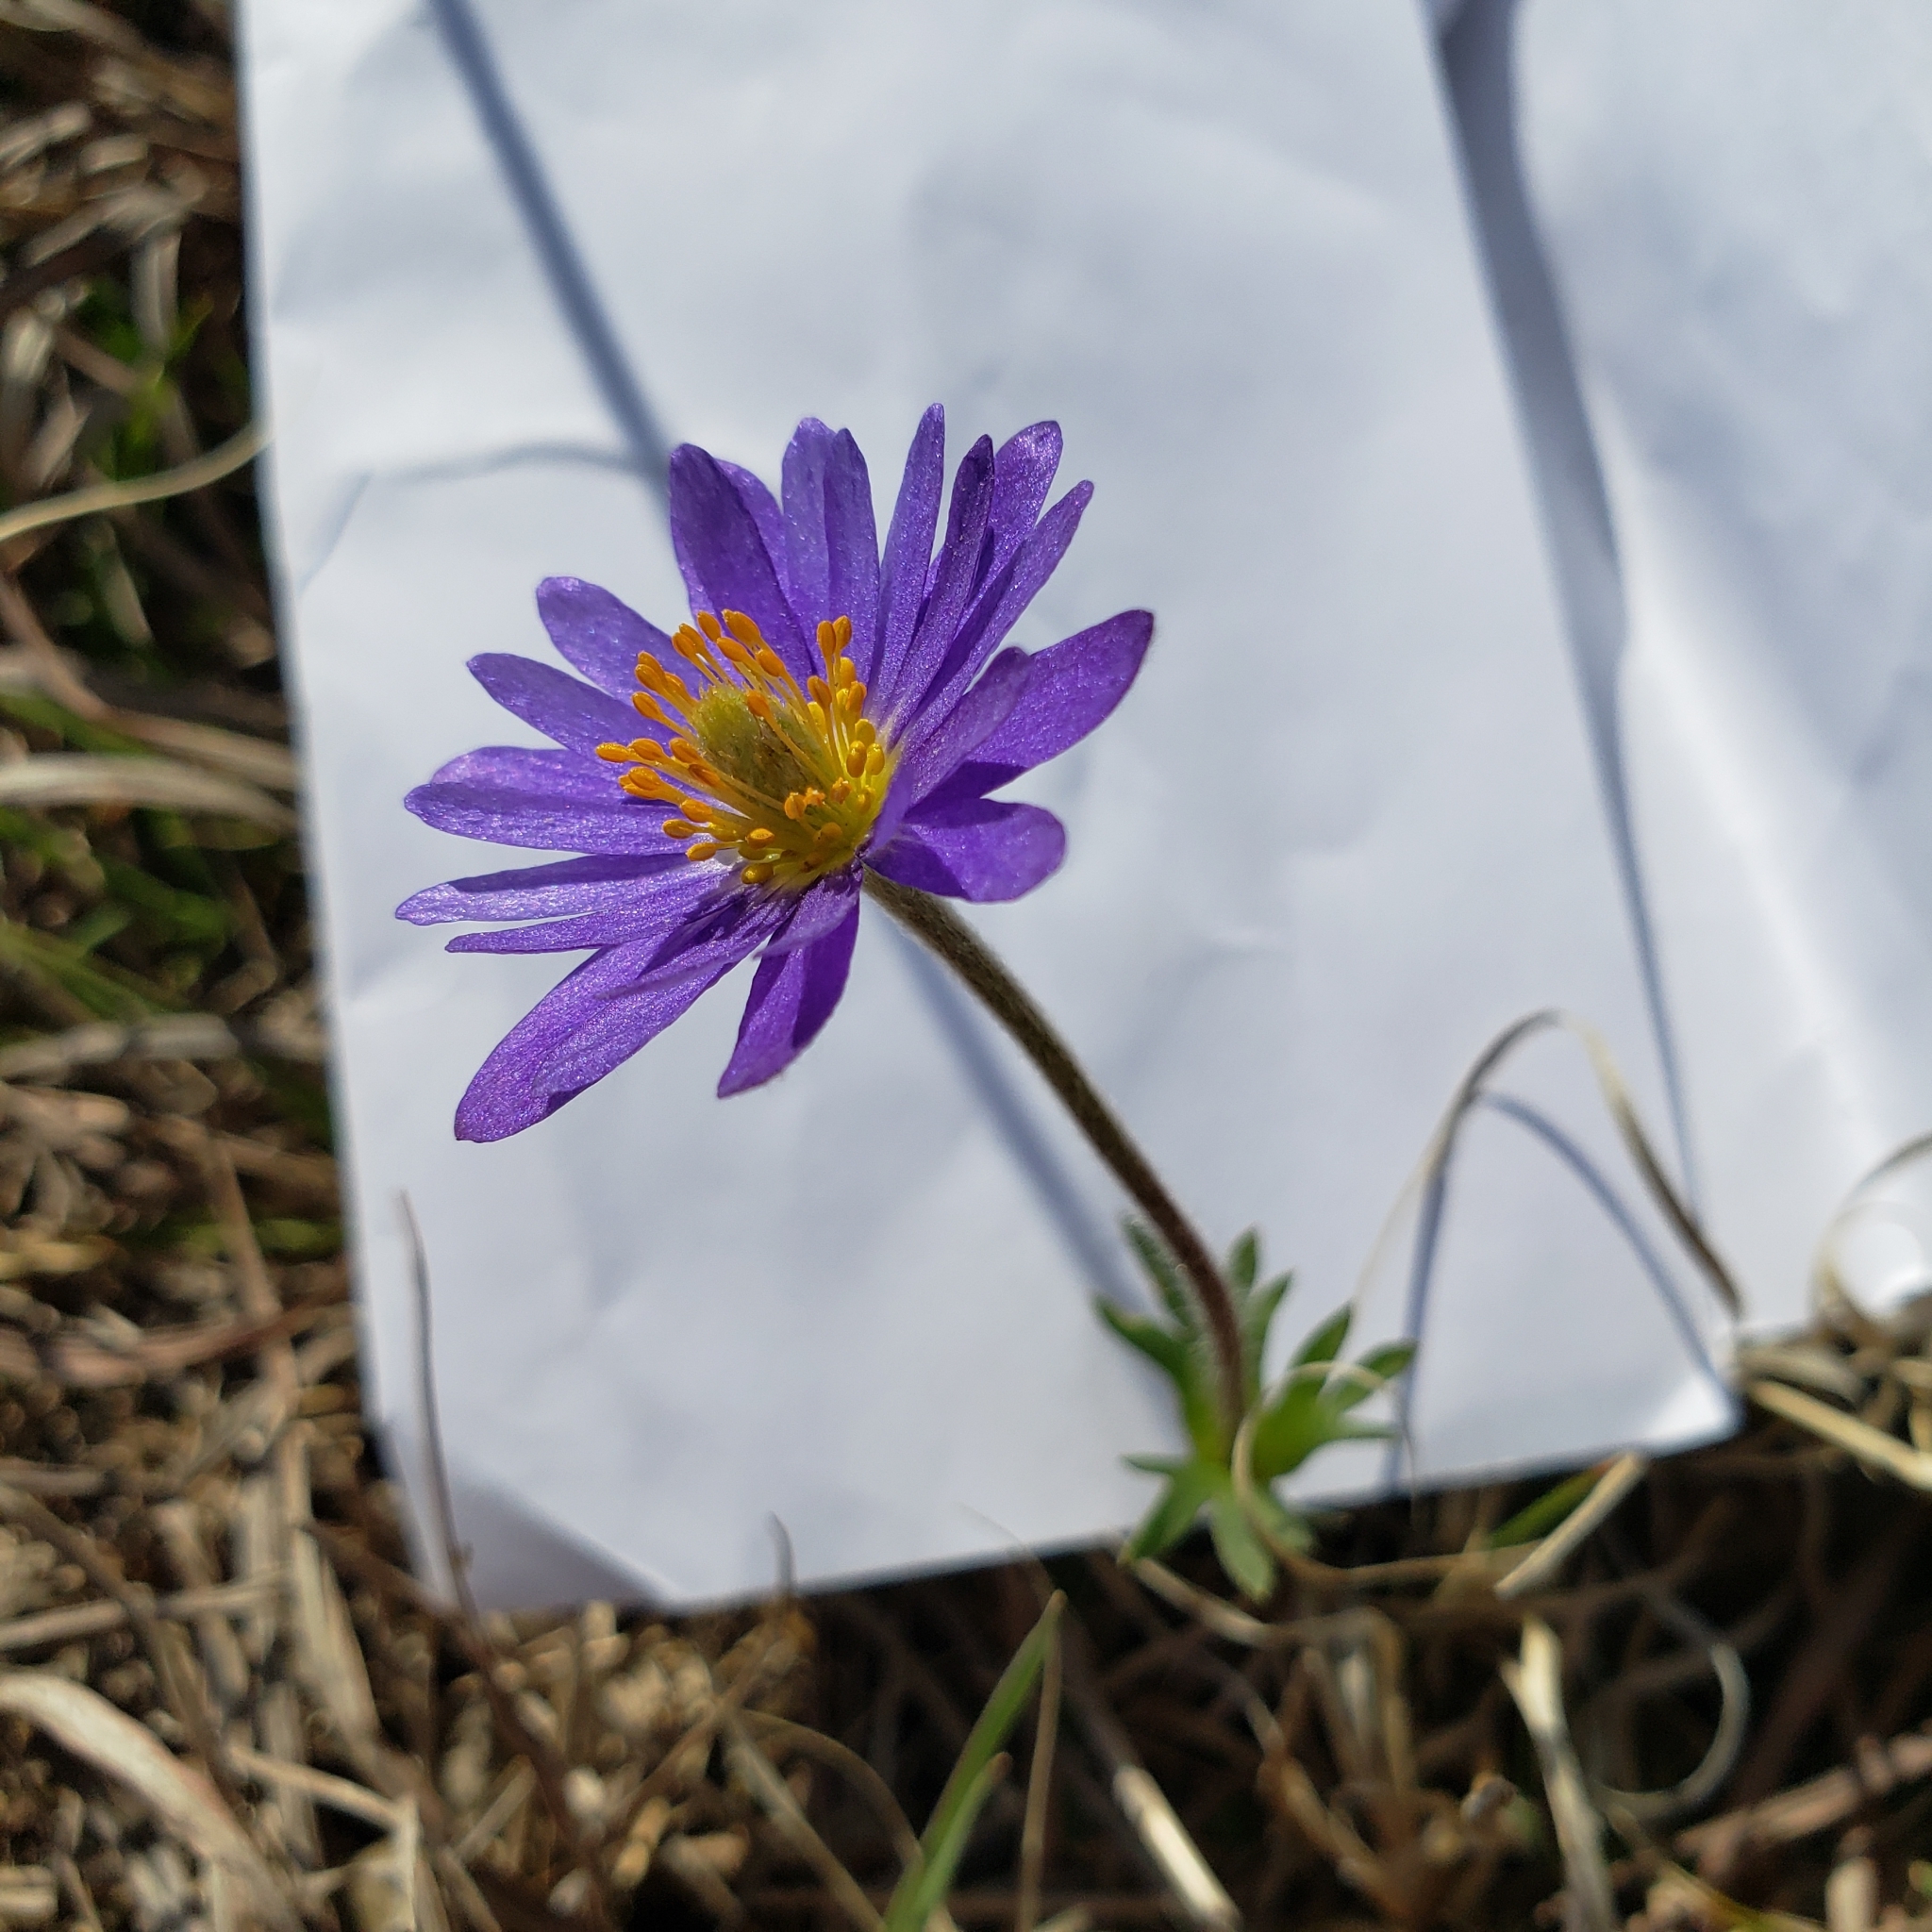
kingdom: Plantae
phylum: Tracheophyta
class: Magnoliopsida
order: Ranunculales
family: Ranunculaceae
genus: Anemone
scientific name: Anemone caroliniana
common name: Carolina anemone
